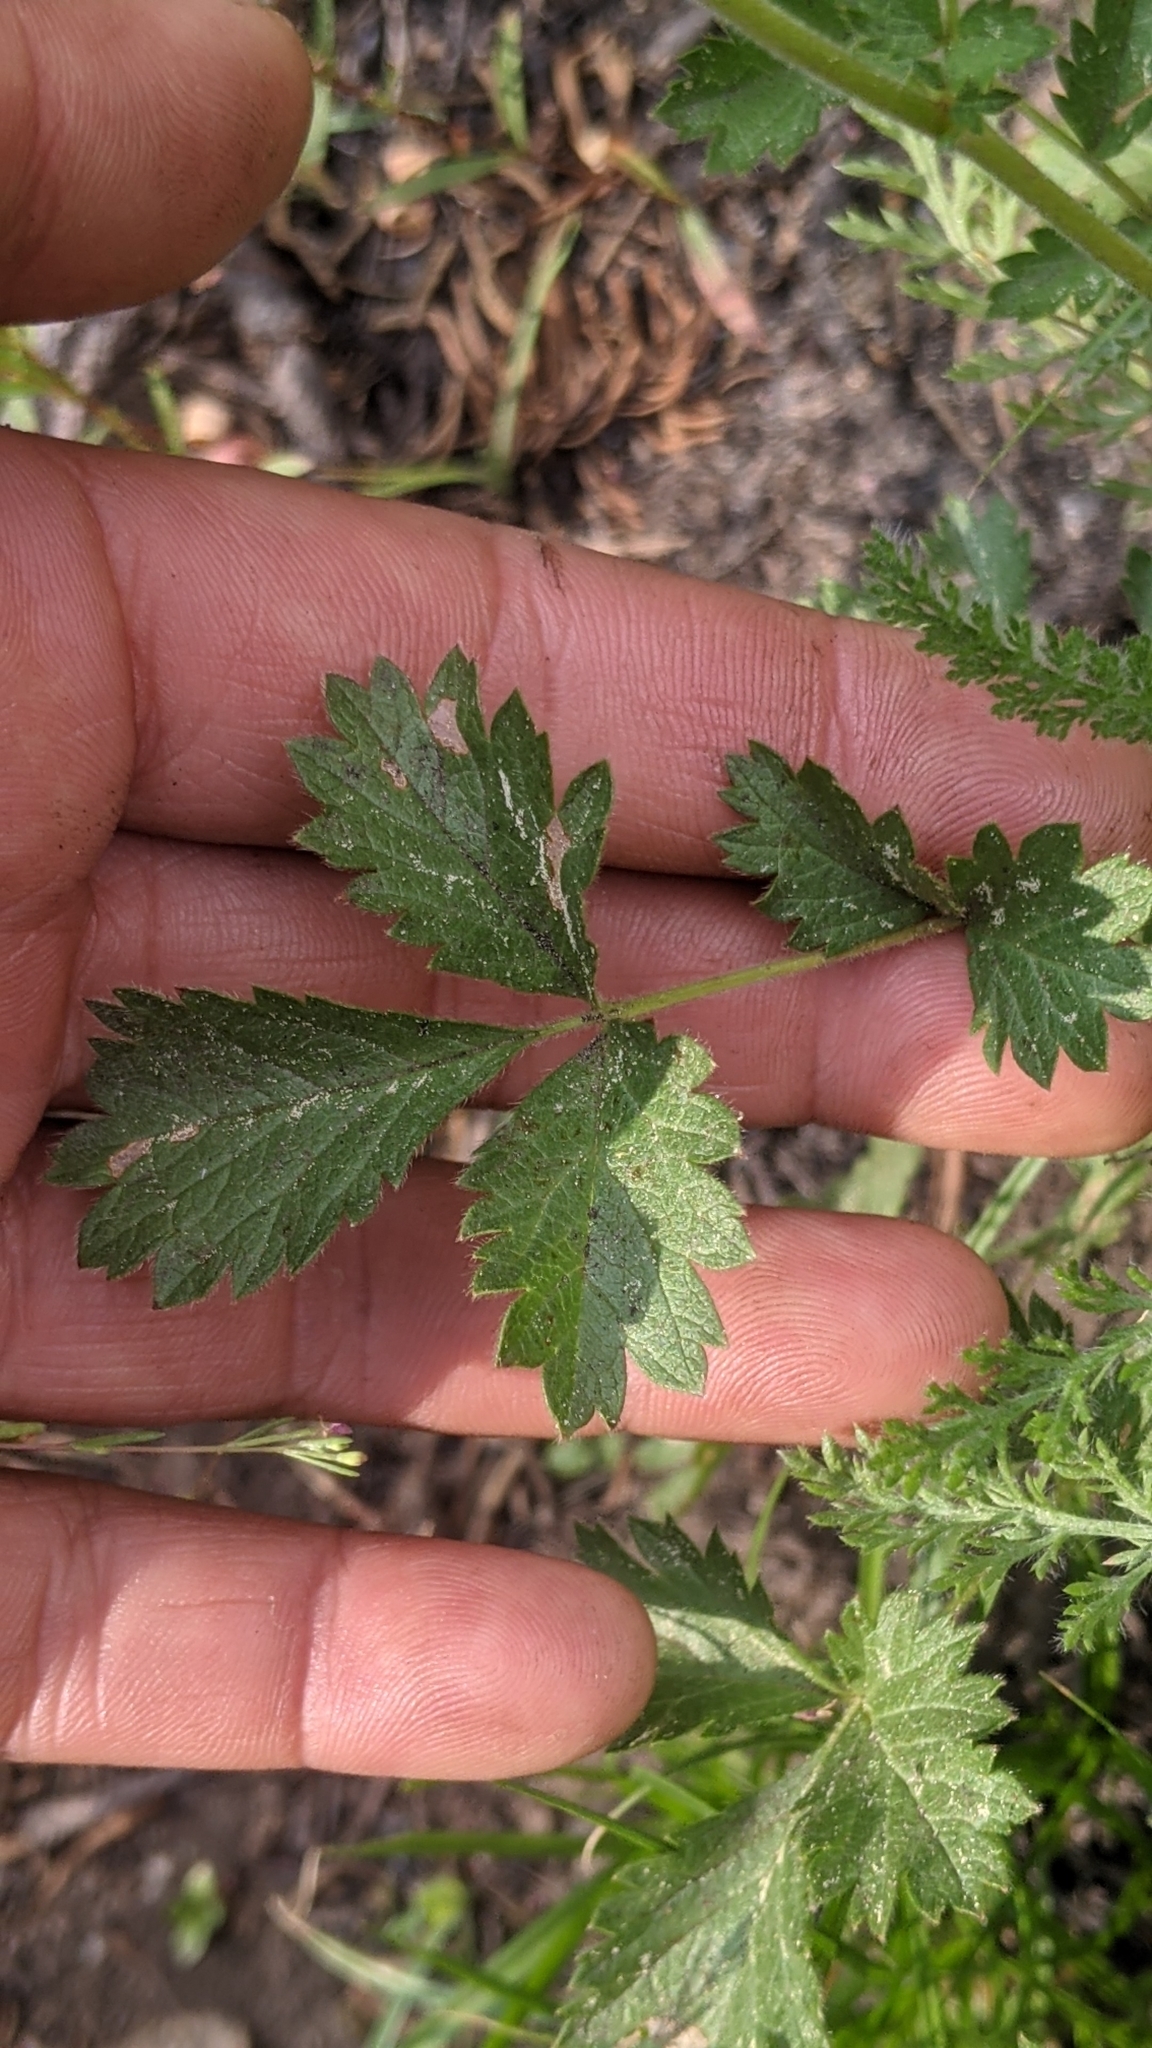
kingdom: Plantae
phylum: Tracheophyta
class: Magnoliopsida
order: Rosales
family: Rosaceae
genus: Drymocallis
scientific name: Drymocallis glandulosa
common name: Sticky cinquefoil
